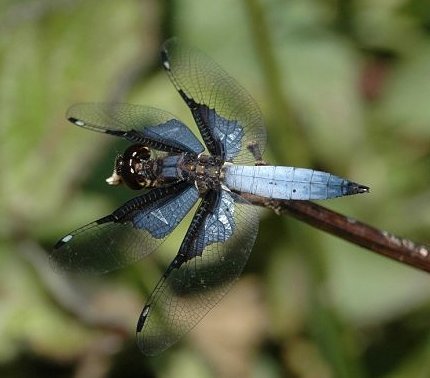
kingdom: Animalia
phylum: Arthropoda
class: Insecta
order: Odonata
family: Libellulidae
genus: Palpopleura
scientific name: Palpopleura vestita
